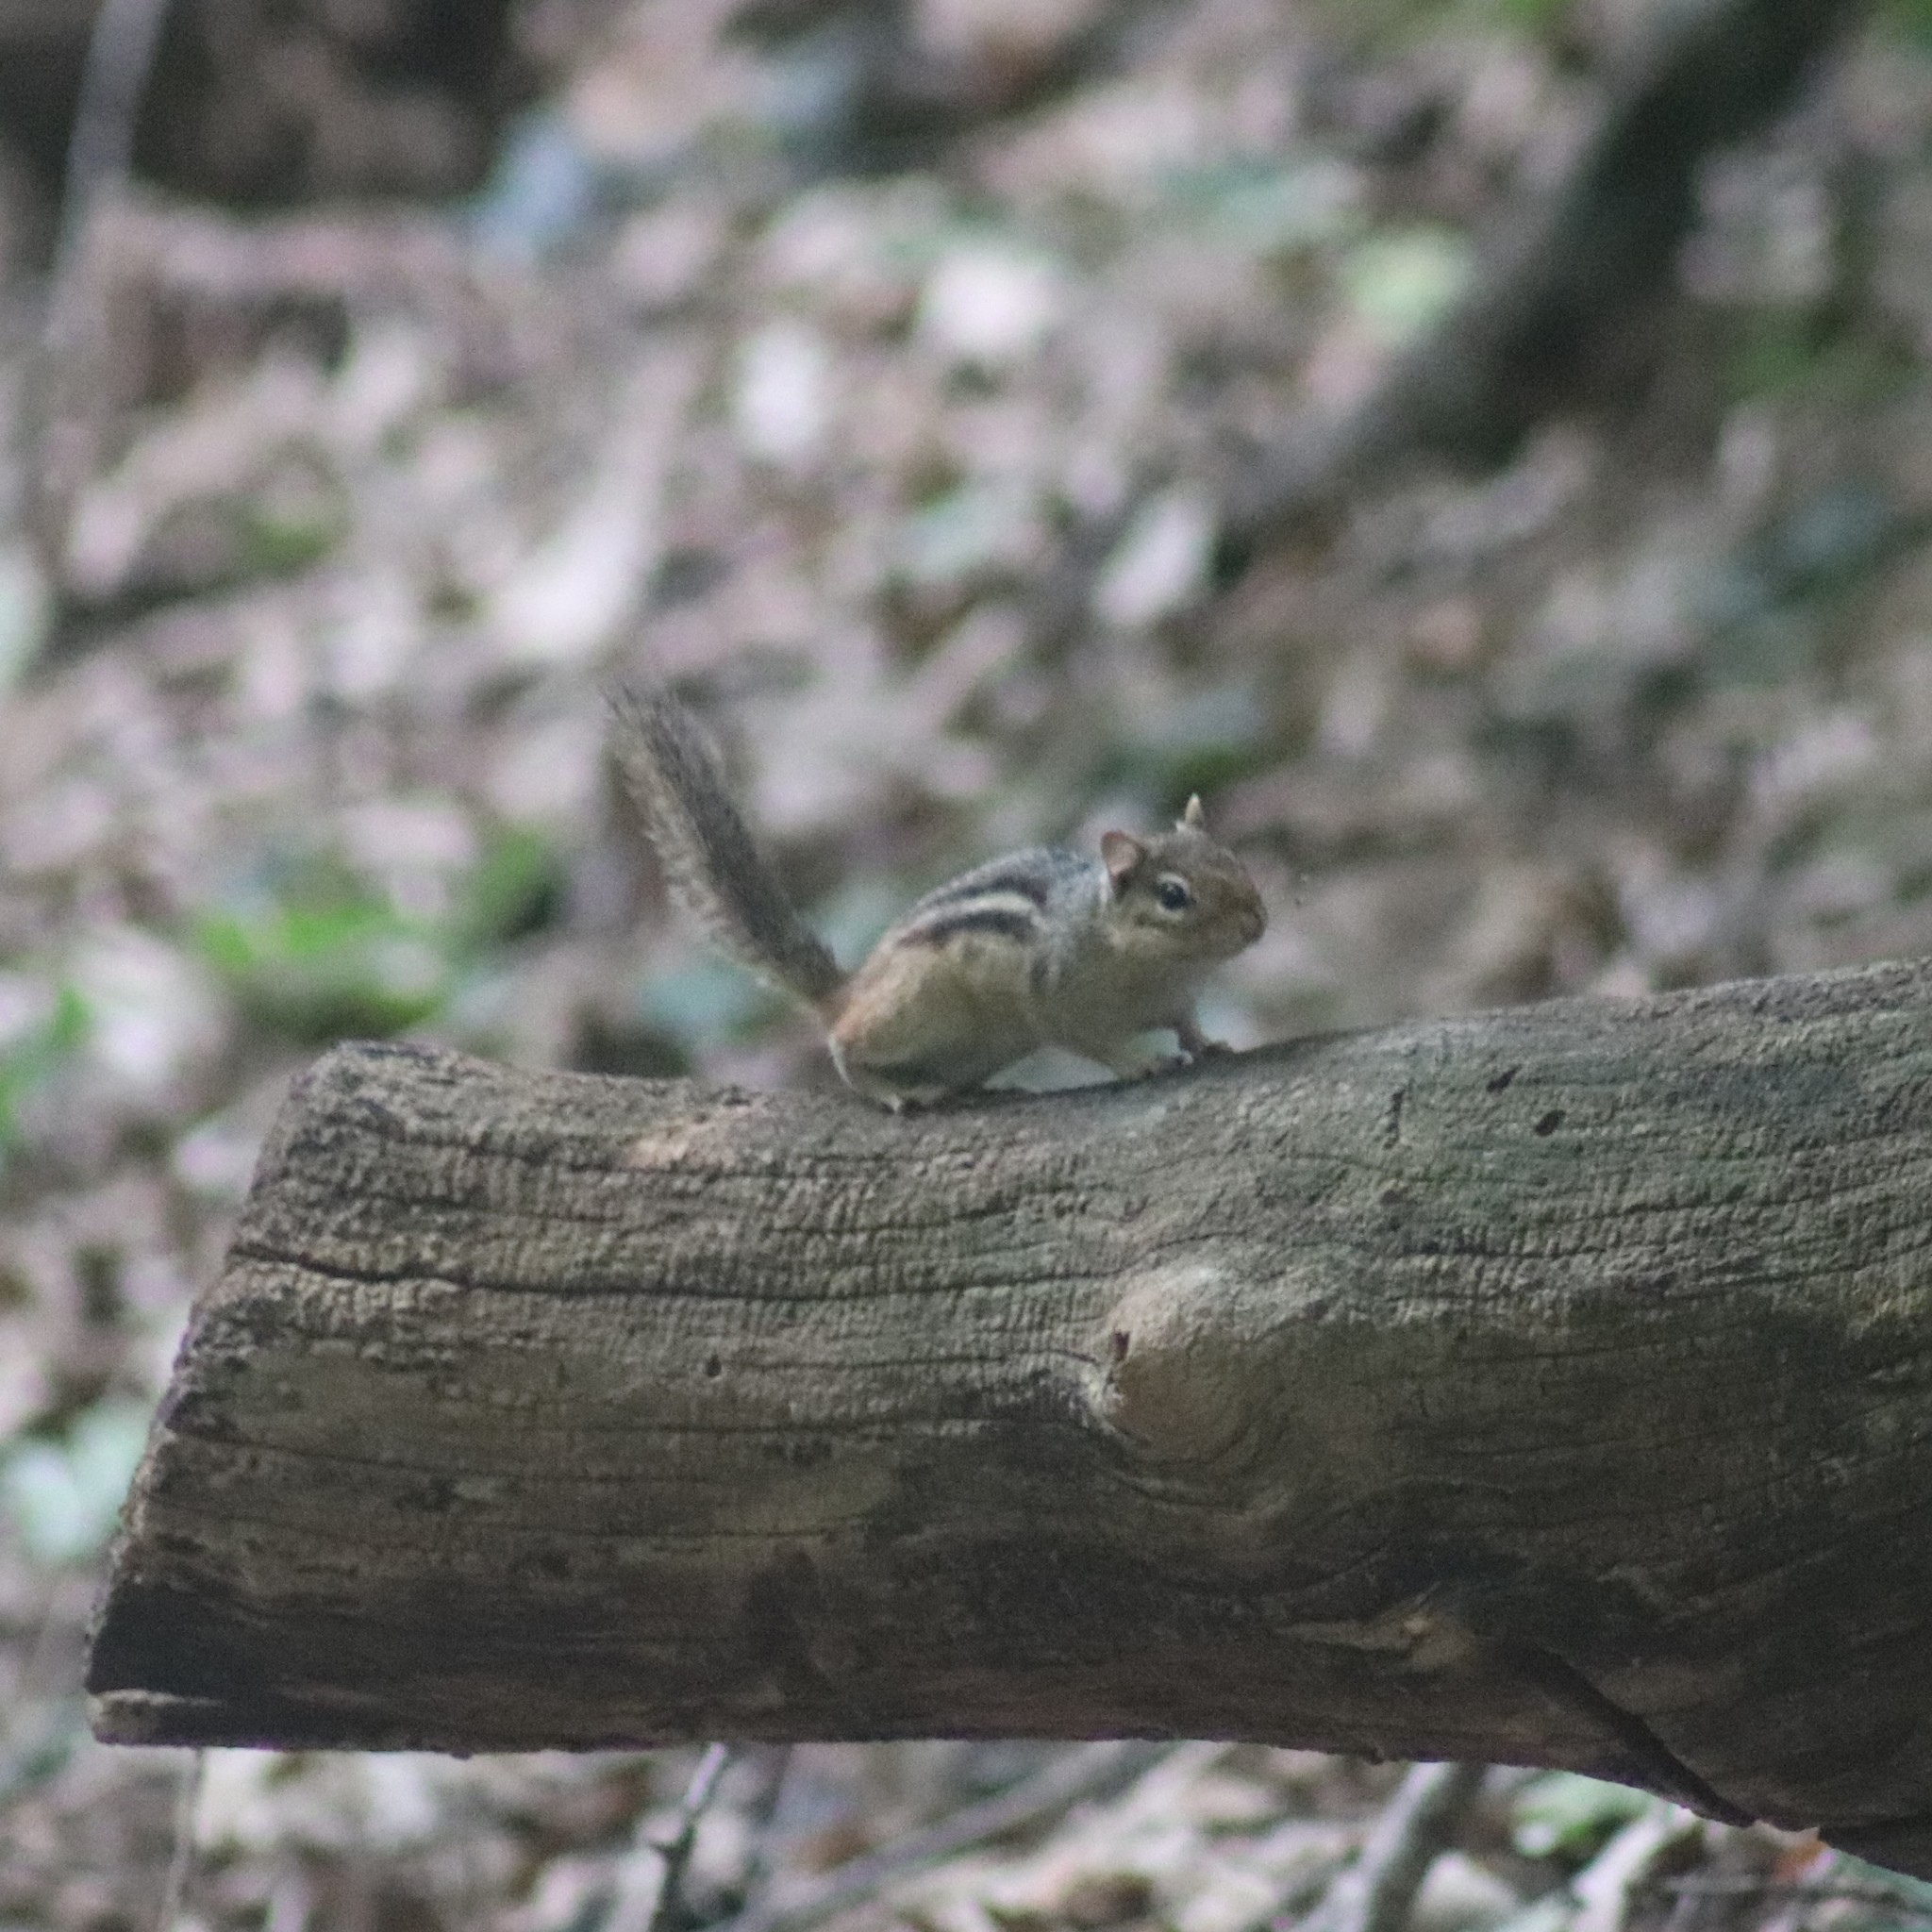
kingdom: Animalia
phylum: Chordata
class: Mammalia
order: Rodentia
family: Sciuridae
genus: Tamias
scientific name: Tamias striatus
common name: Eastern chipmunk
